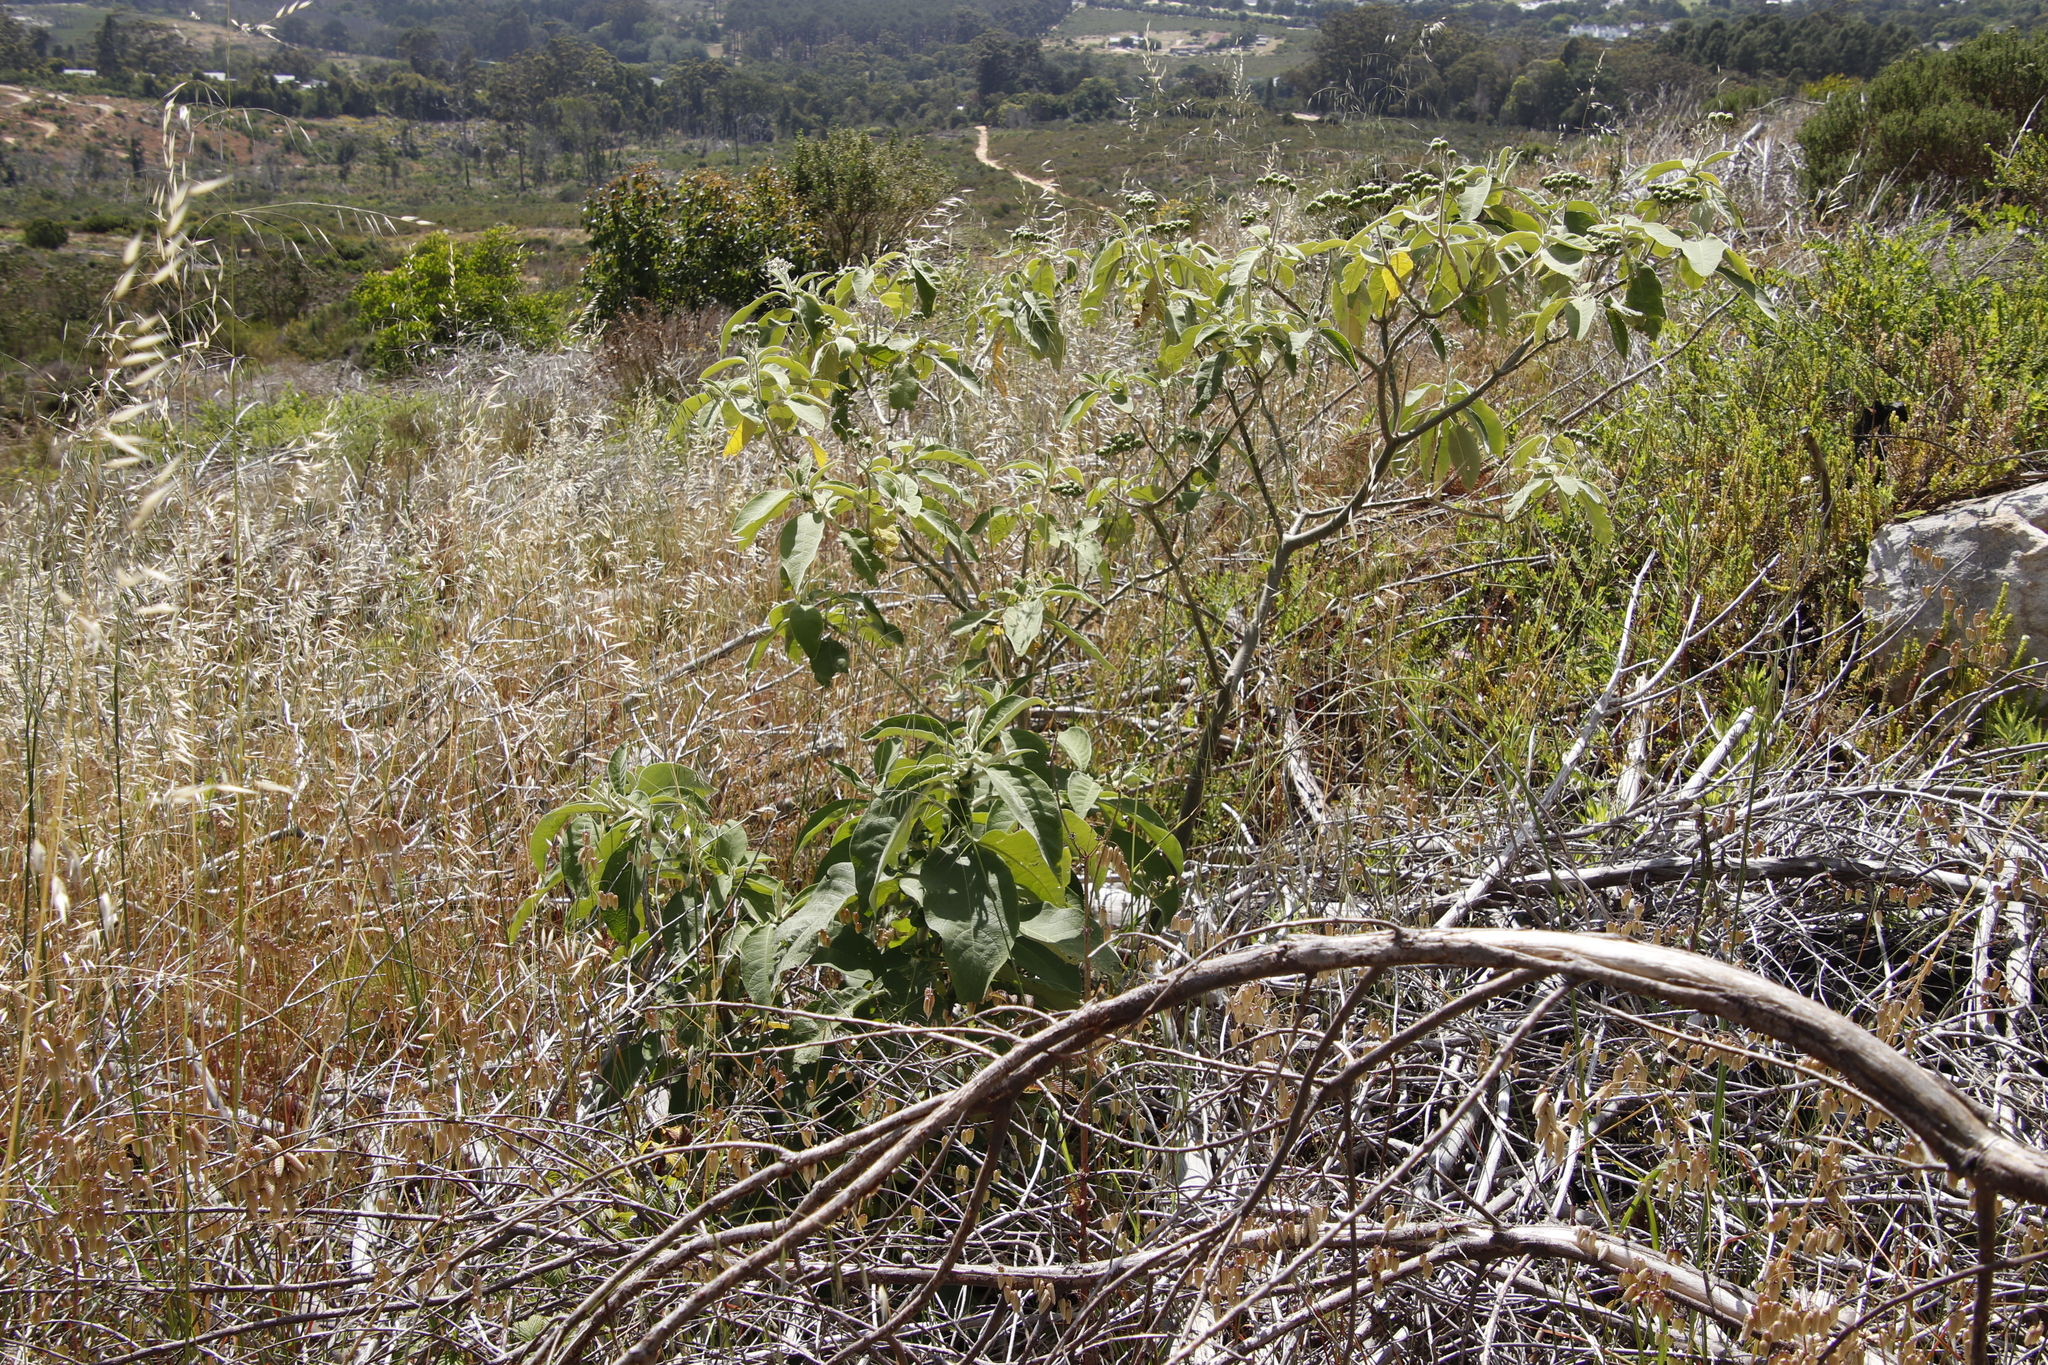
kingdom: Plantae
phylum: Tracheophyta
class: Magnoliopsida
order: Solanales
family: Solanaceae
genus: Solanum
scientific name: Solanum mauritianum
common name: Earleaf nightshade
